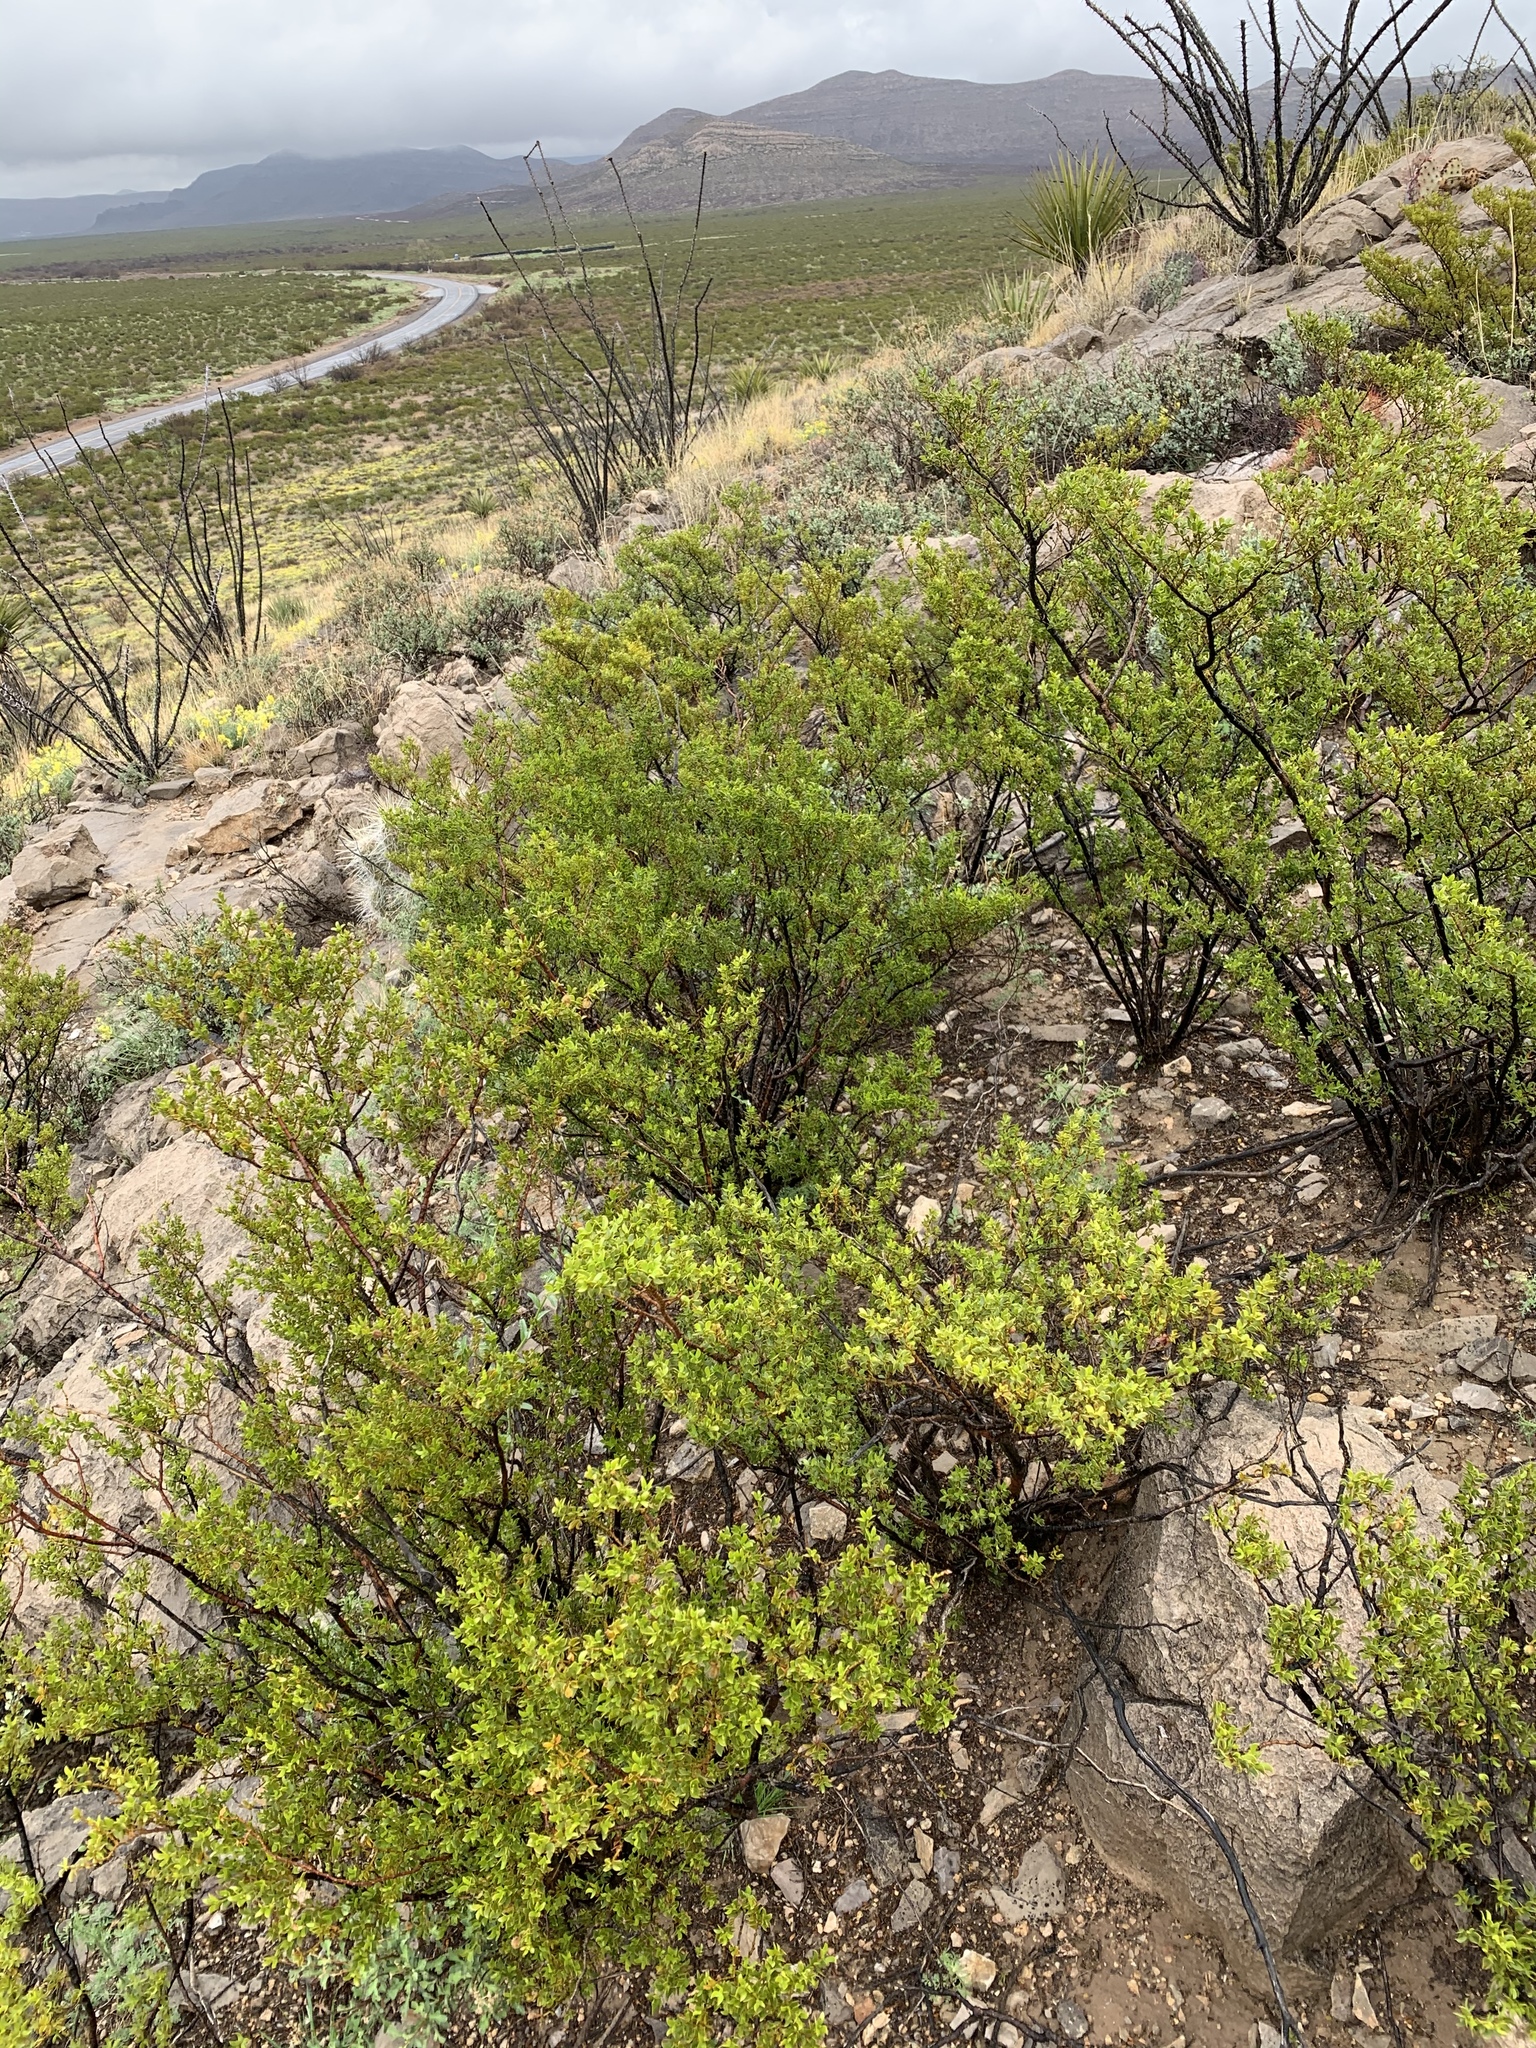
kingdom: Plantae
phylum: Tracheophyta
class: Magnoliopsida
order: Zygophyllales
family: Zygophyllaceae
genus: Larrea
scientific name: Larrea tridentata
